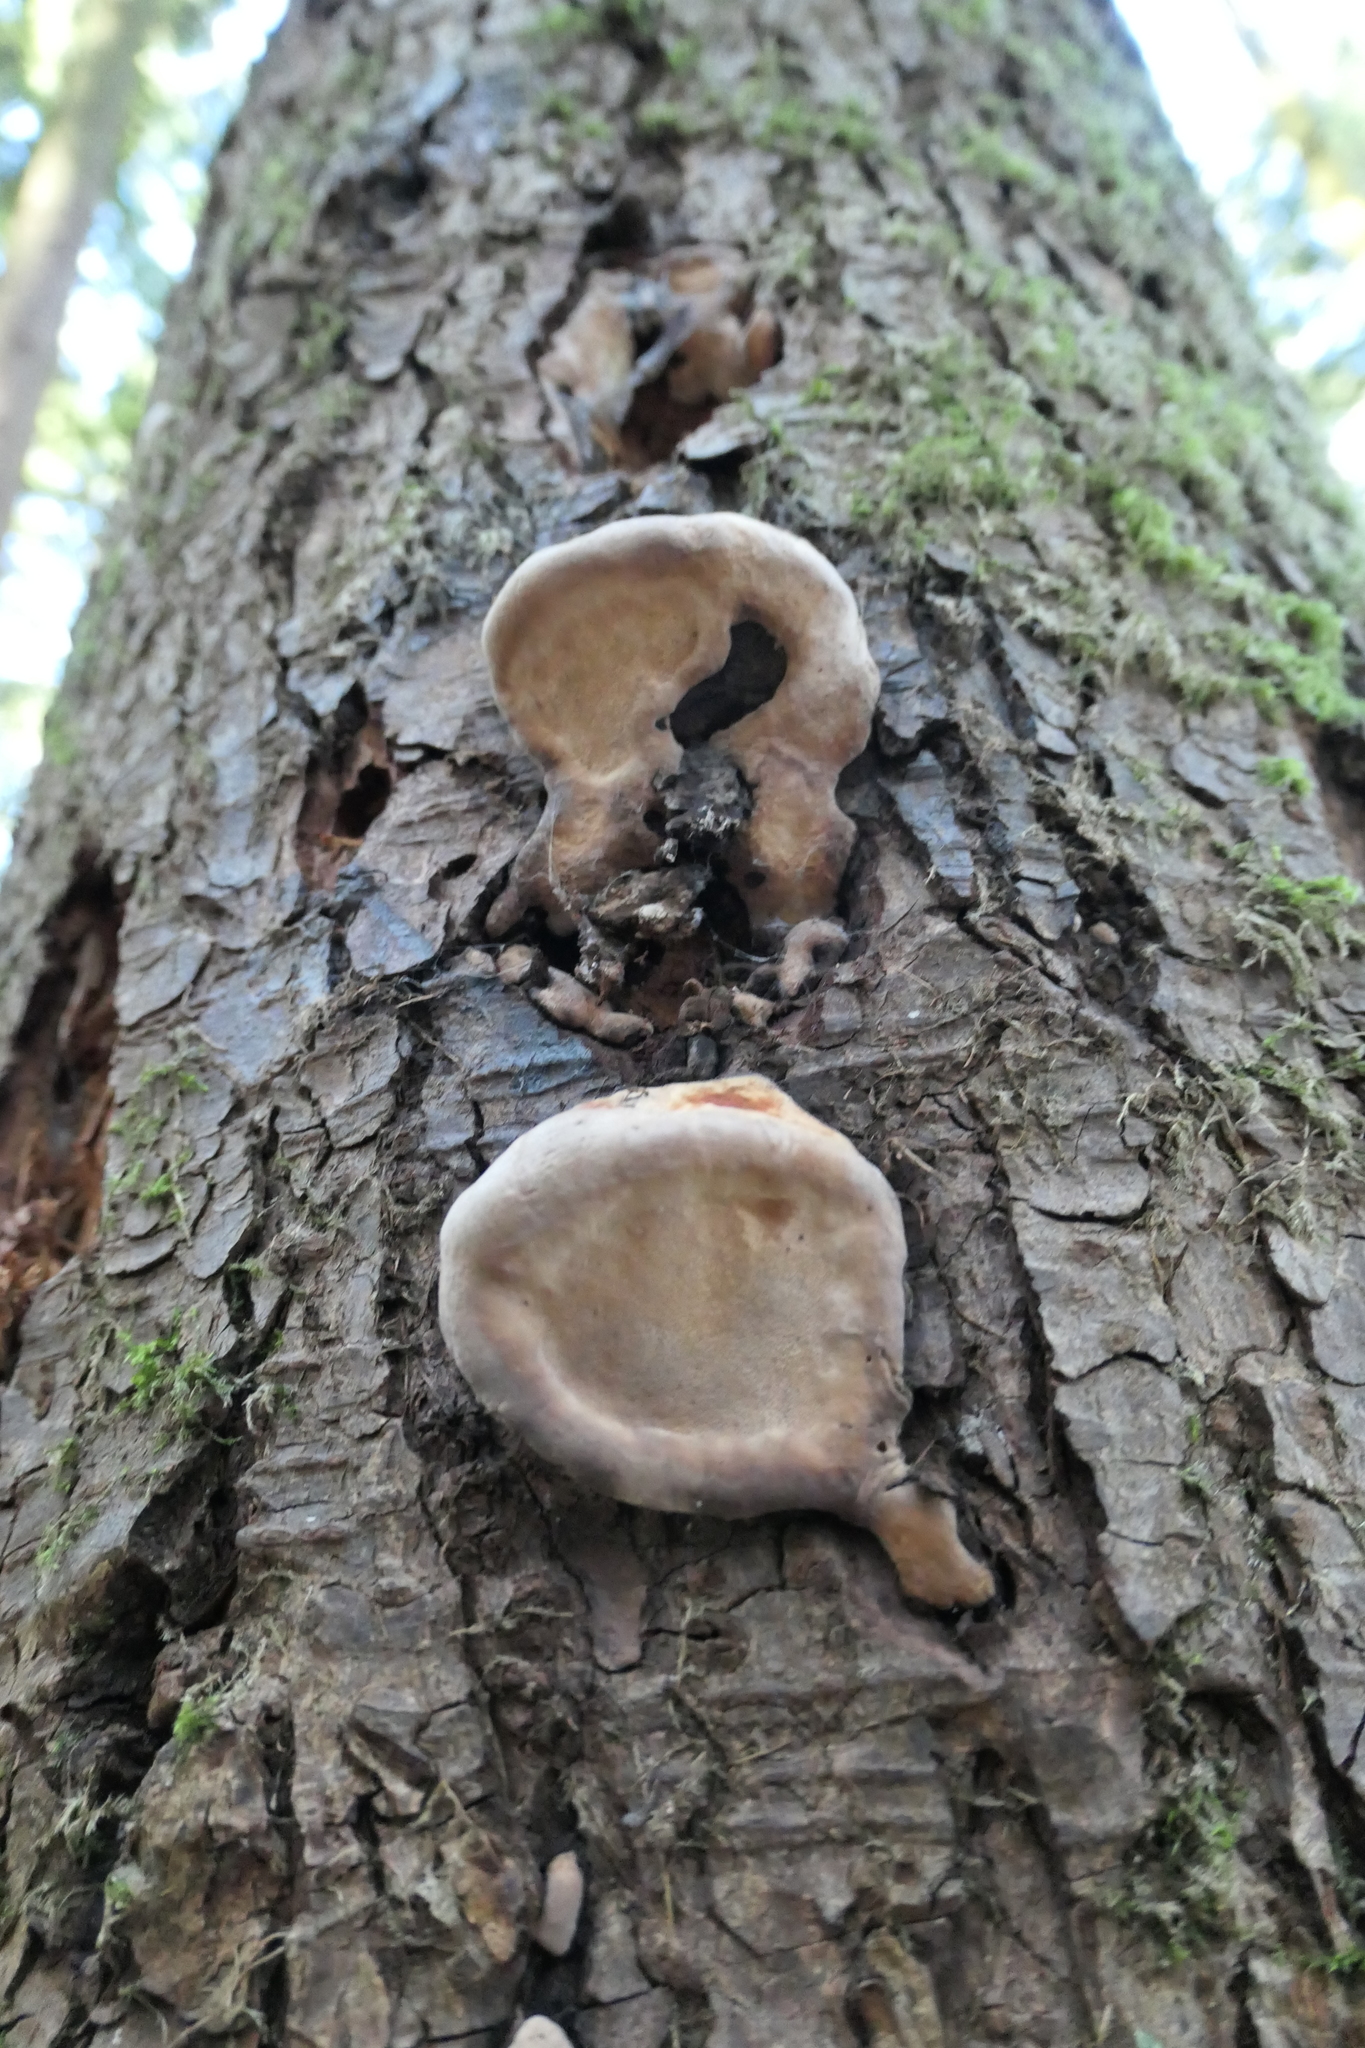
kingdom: Fungi
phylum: Basidiomycota
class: Agaricomycetes
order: Polyporales
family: Fomitopsidaceae
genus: Fomitopsis
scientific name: Fomitopsis mounceae
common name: Northern red belt
